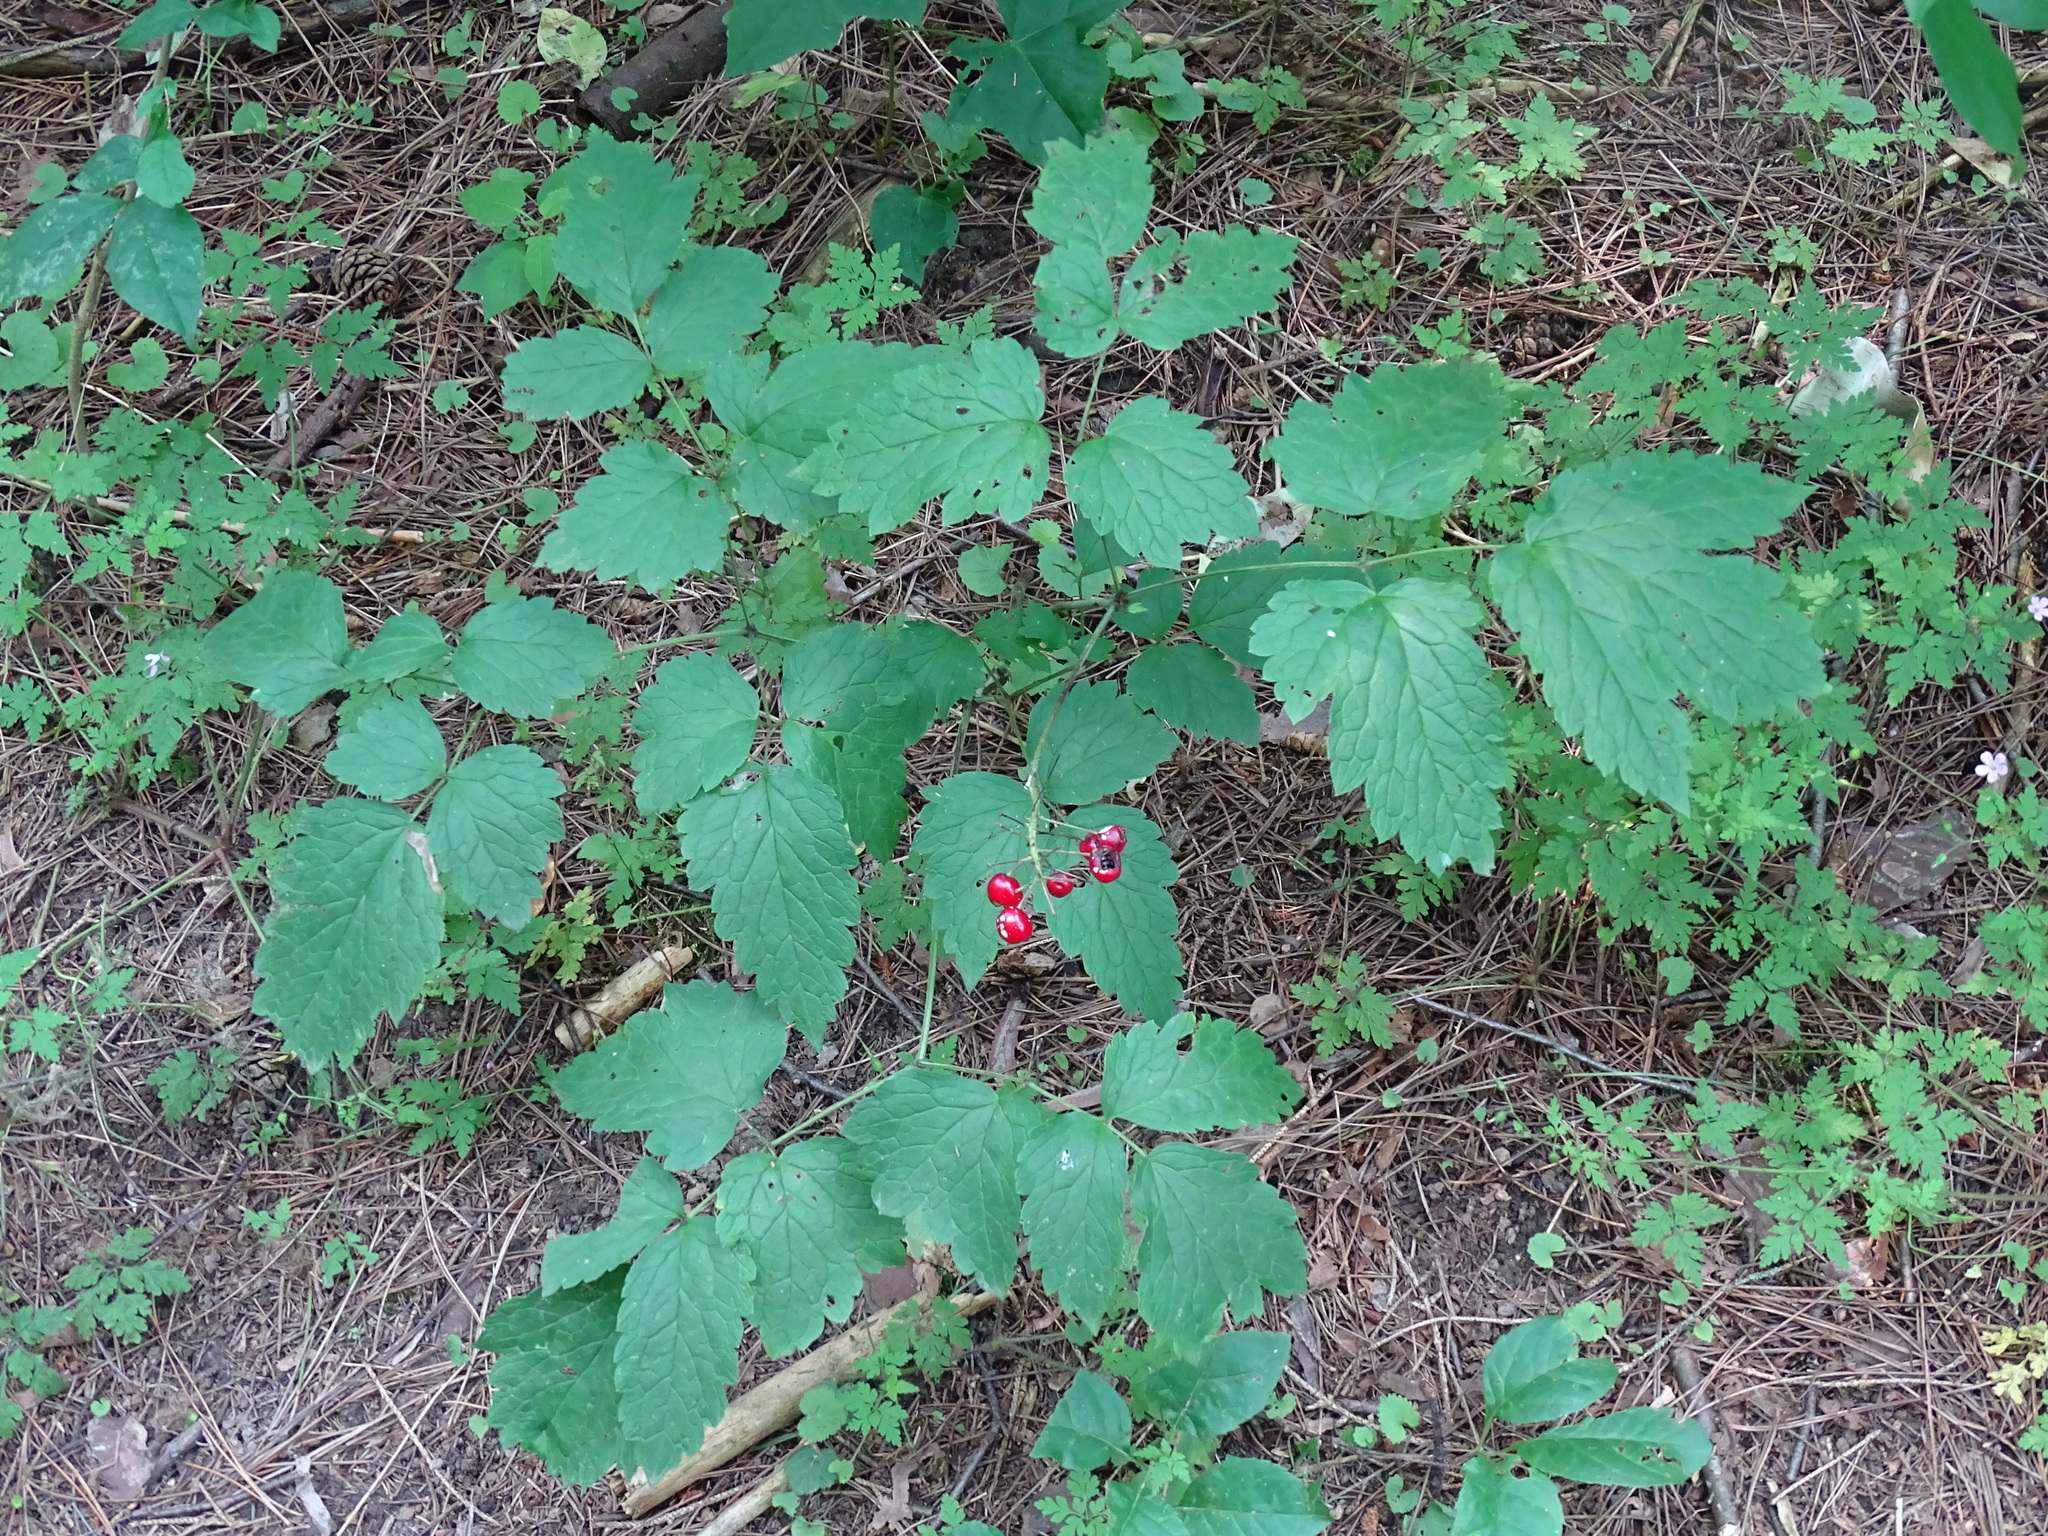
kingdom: Plantae
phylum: Tracheophyta
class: Magnoliopsida
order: Ranunculales
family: Ranunculaceae
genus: Actaea
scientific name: Actaea rubra
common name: Red baneberry
